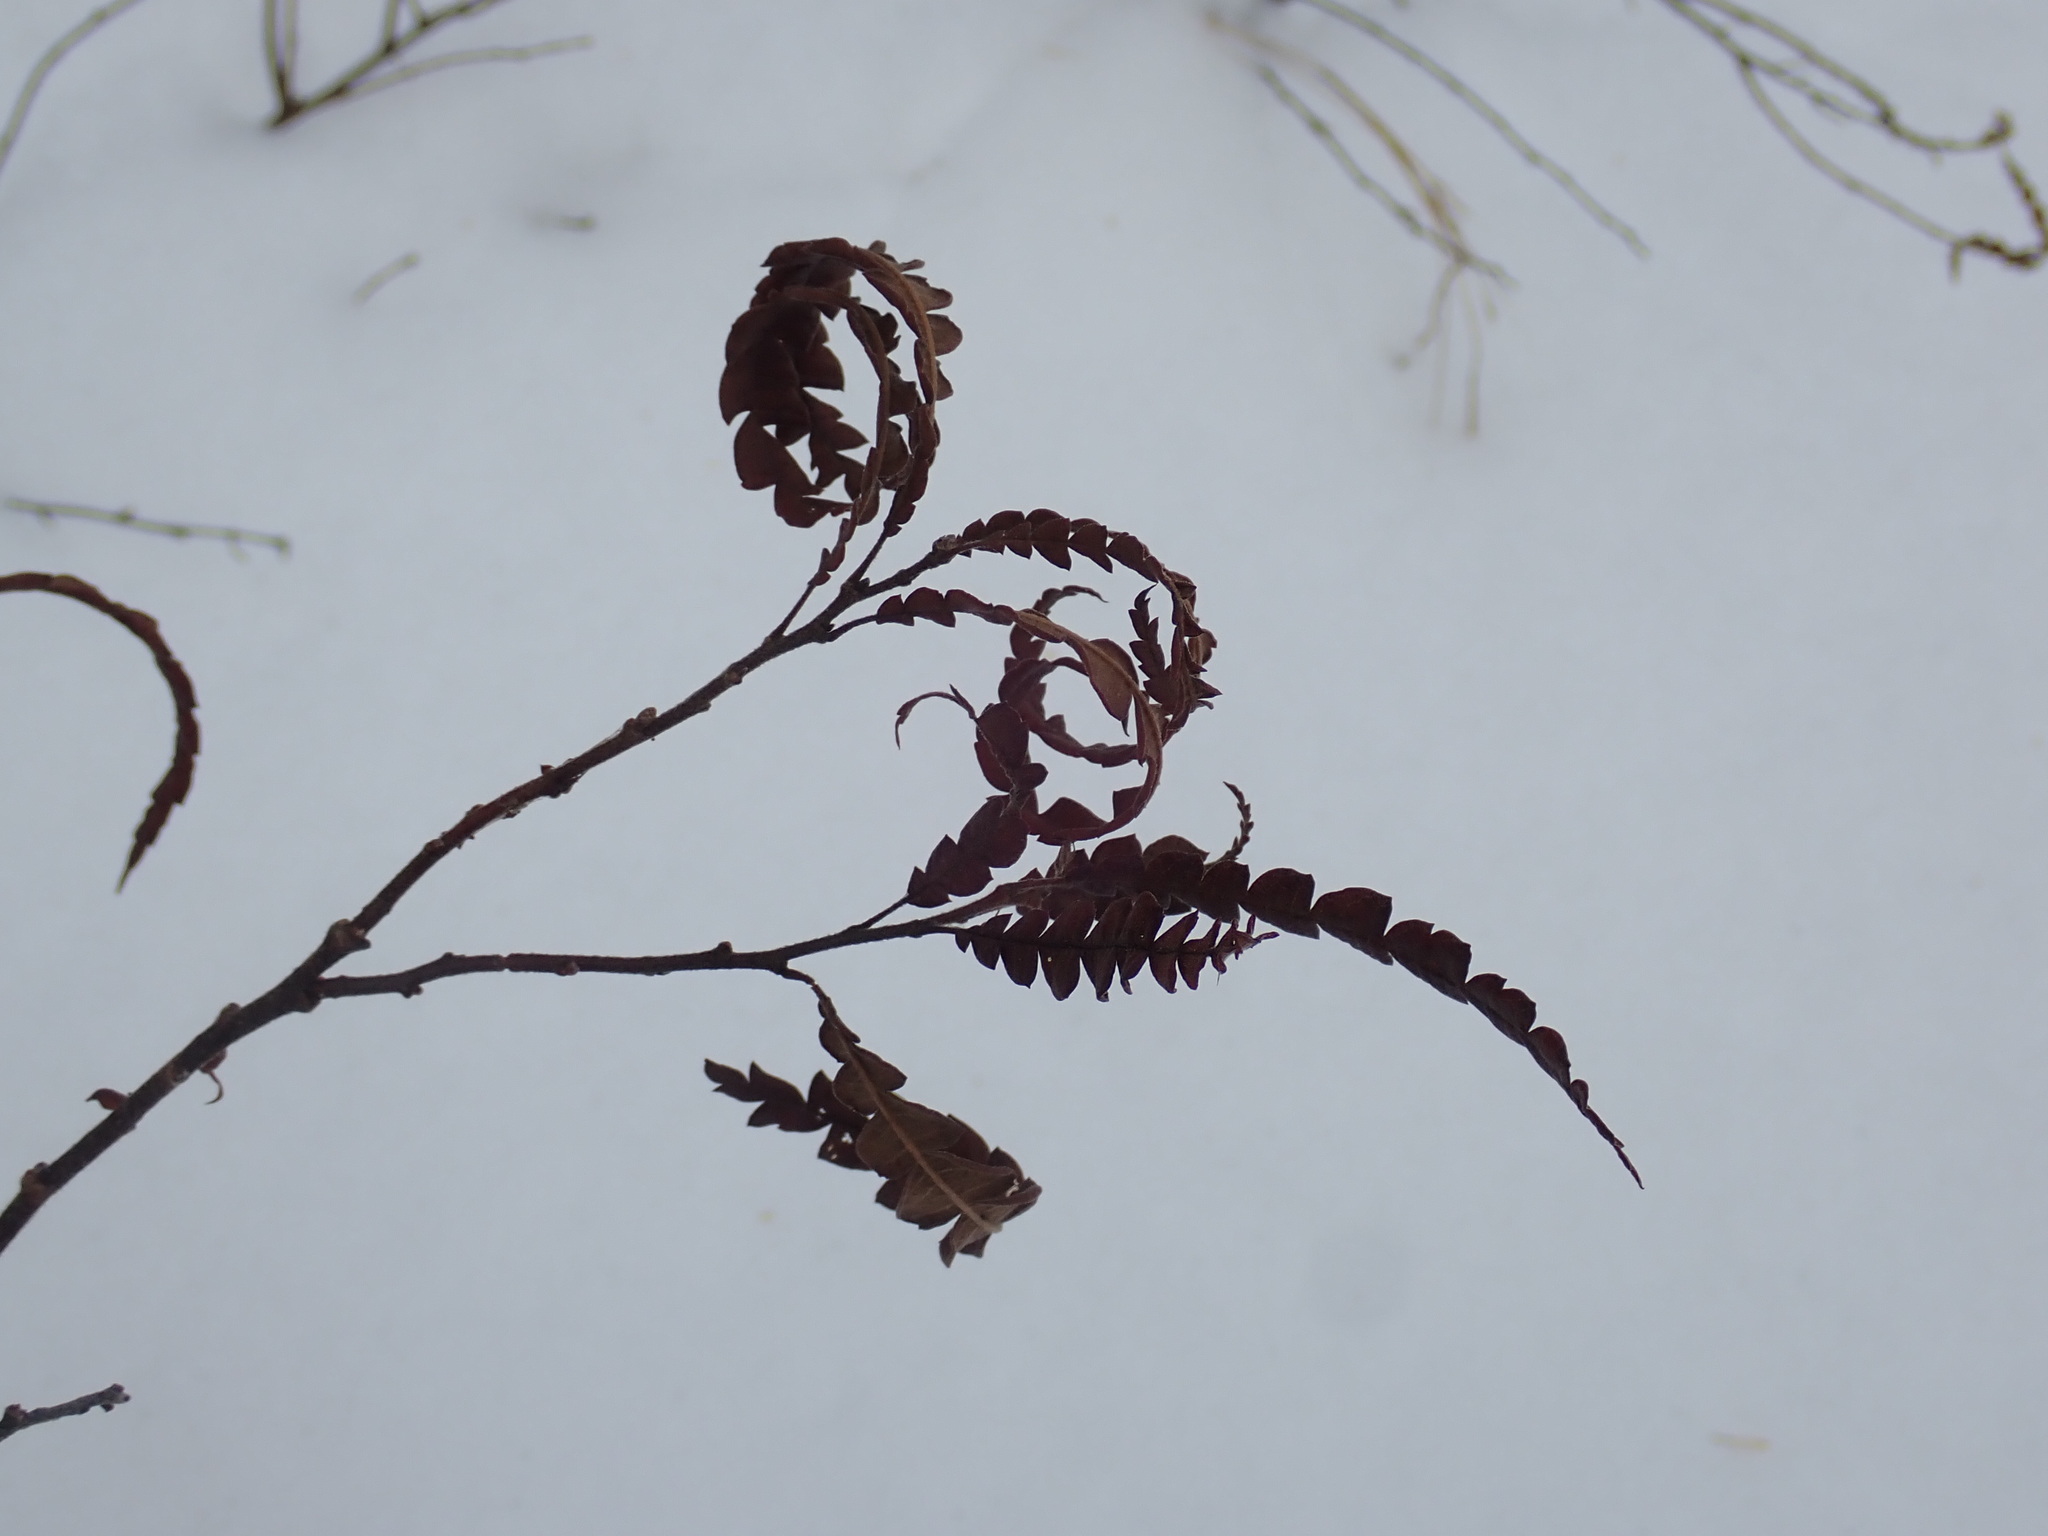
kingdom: Plantae
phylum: Tracheophyta
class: Magnoliopsida
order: Fagales
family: Myricaceae
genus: Comptonia
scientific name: Comptonia peregrina
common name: Sweet-fern
